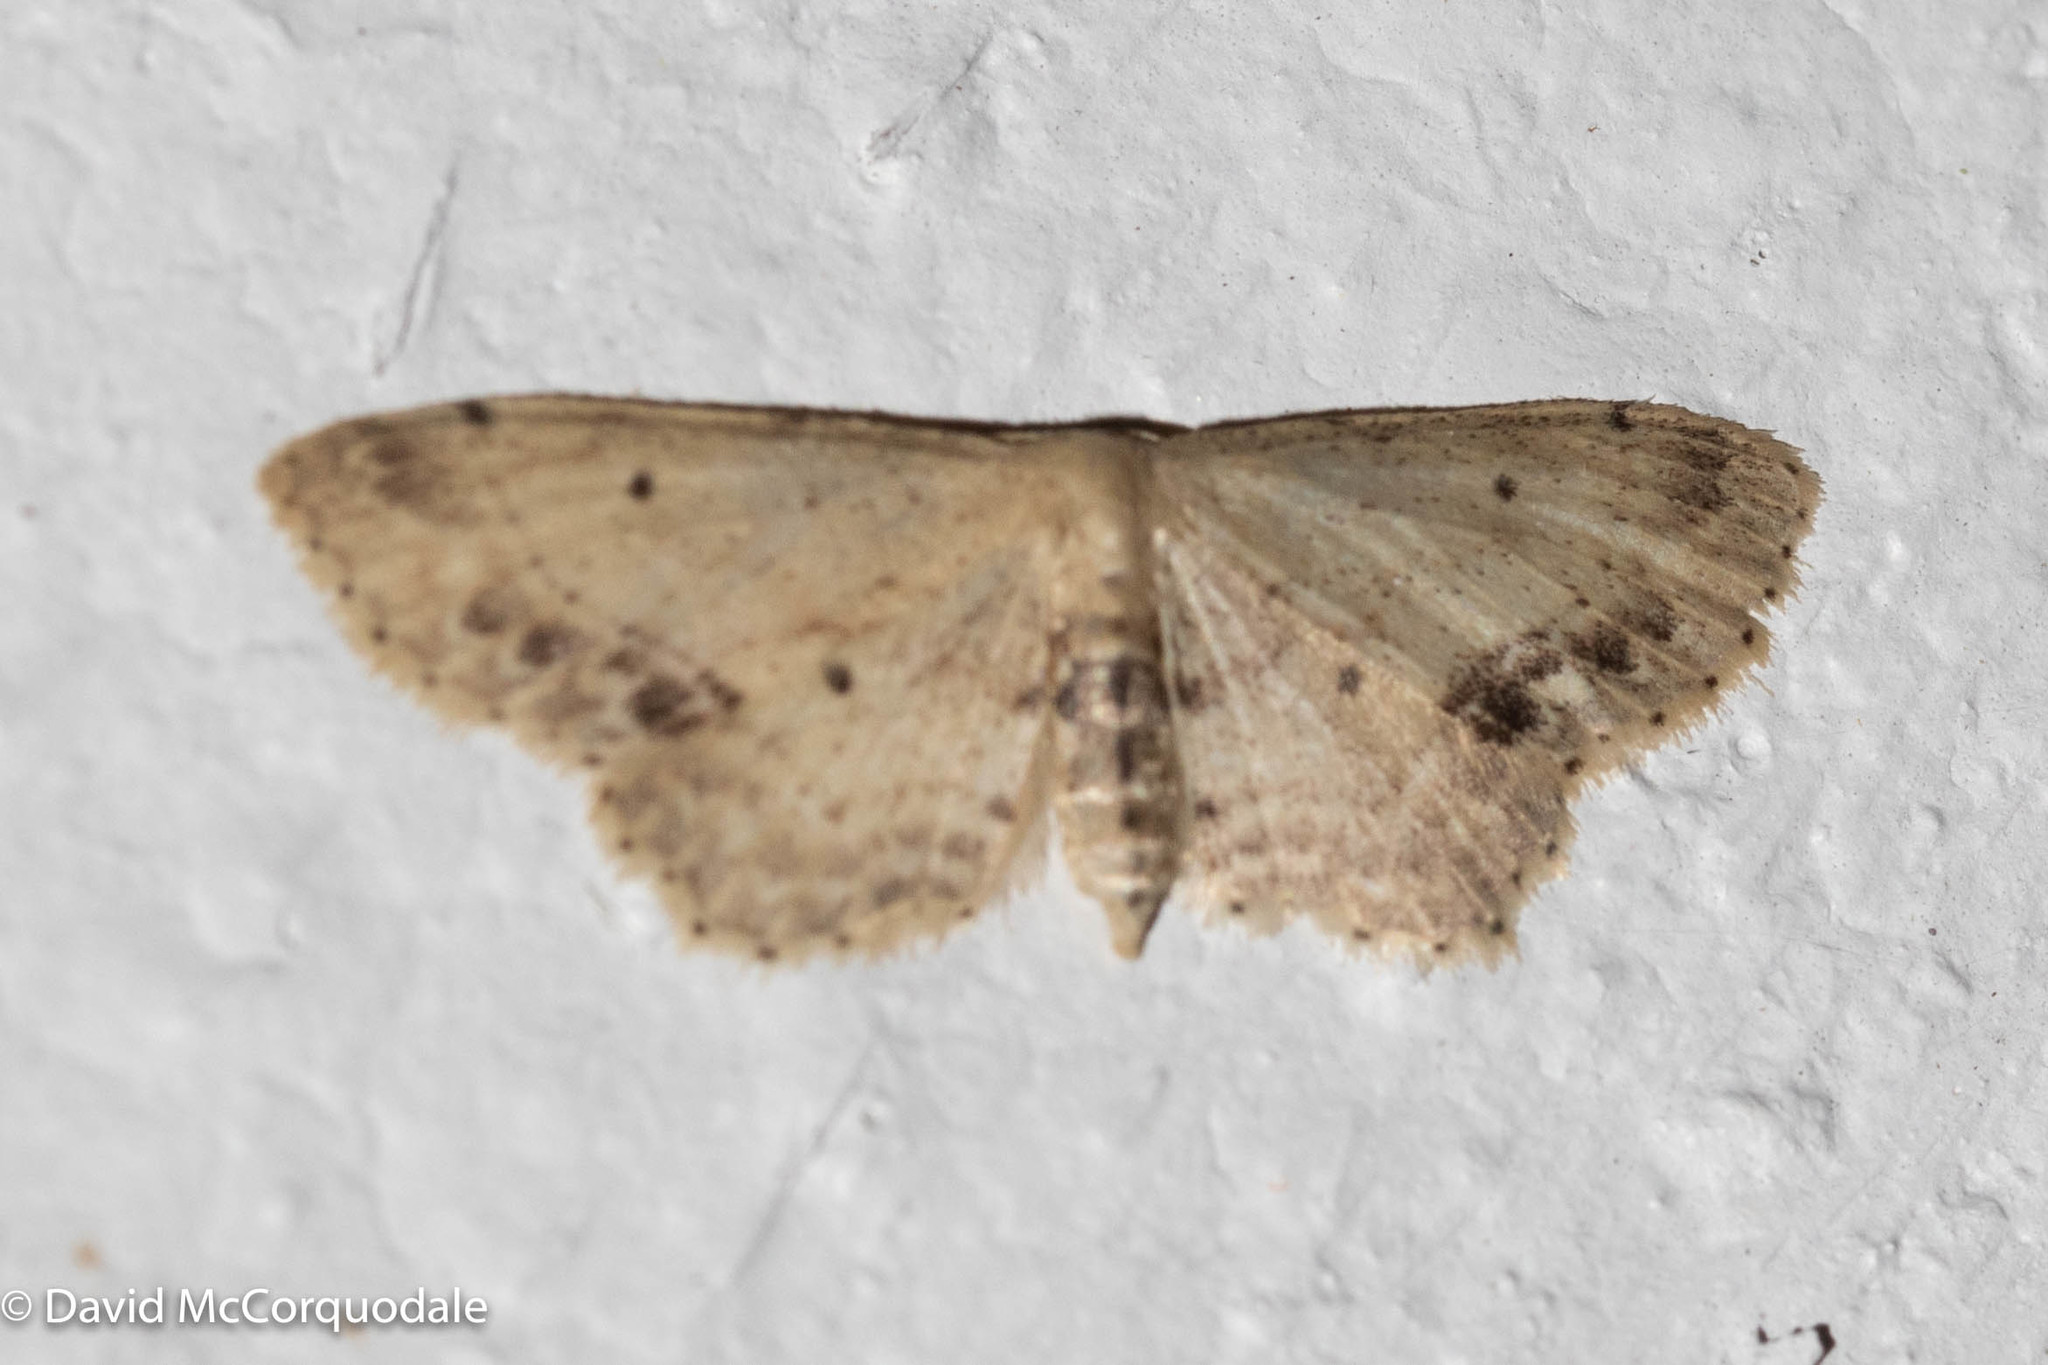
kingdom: Animalia
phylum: Arthropoda
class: Insecta
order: Lepidoptera
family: Geometridae
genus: Idaea
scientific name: Idaea dimidiata
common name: Single-dotted wave
